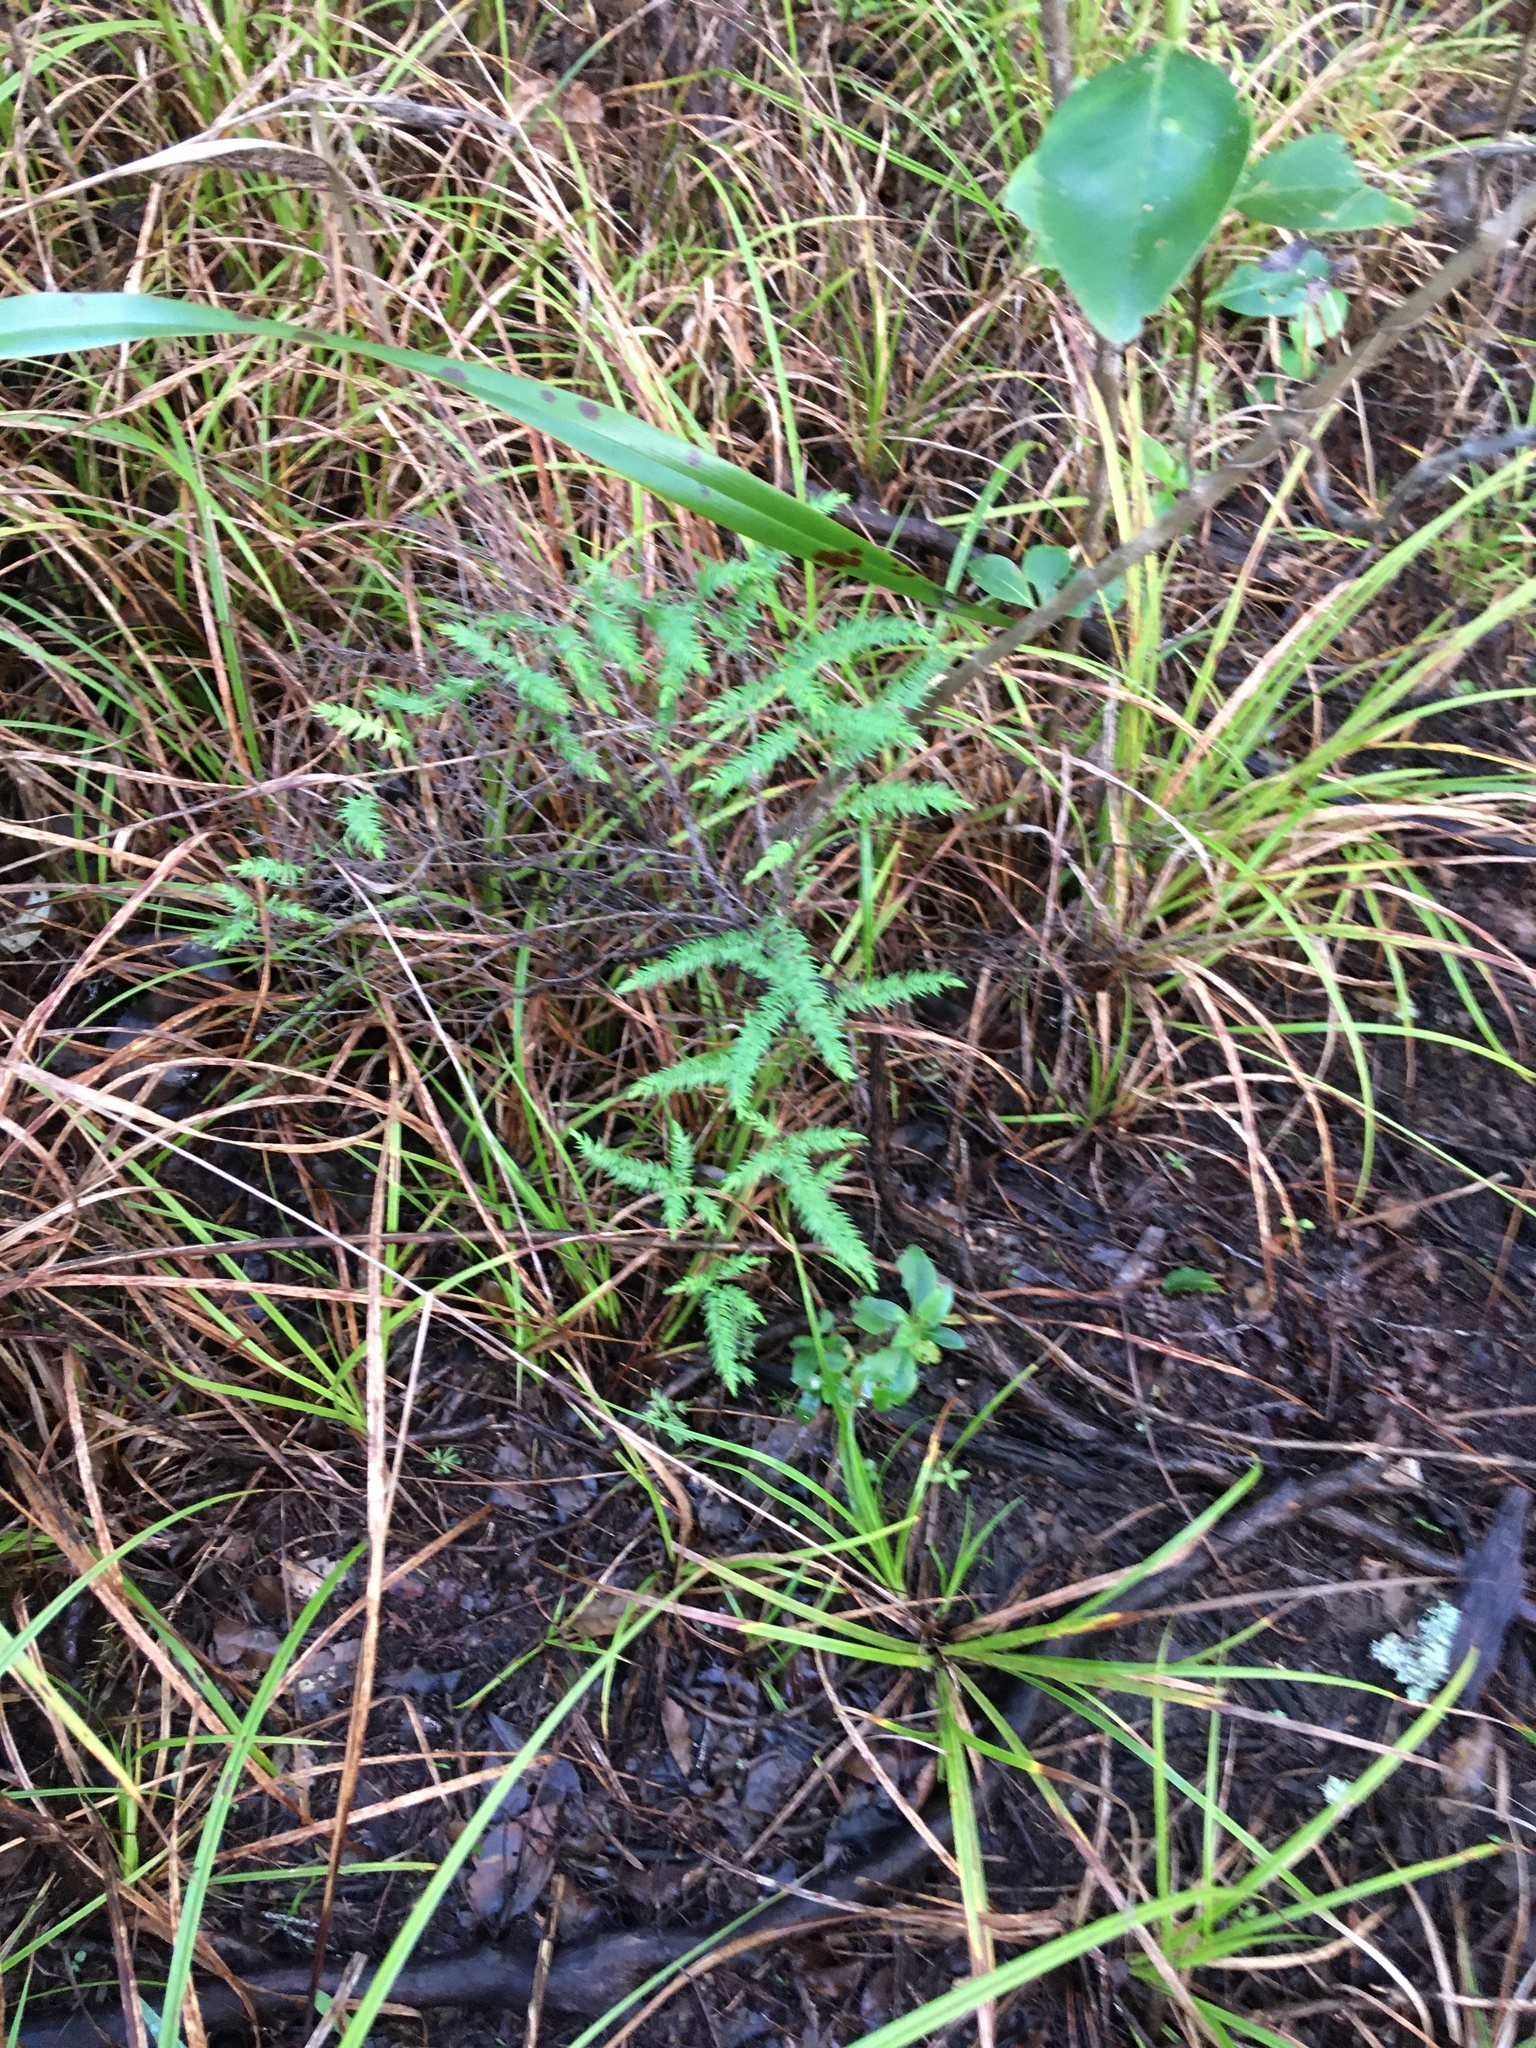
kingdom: Plantae
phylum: Tracheophyta
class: Liliopsida
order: Asparagales
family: Asparagaceae
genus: Asparagus
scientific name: Asparagus scandens
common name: Asparagus-fern
